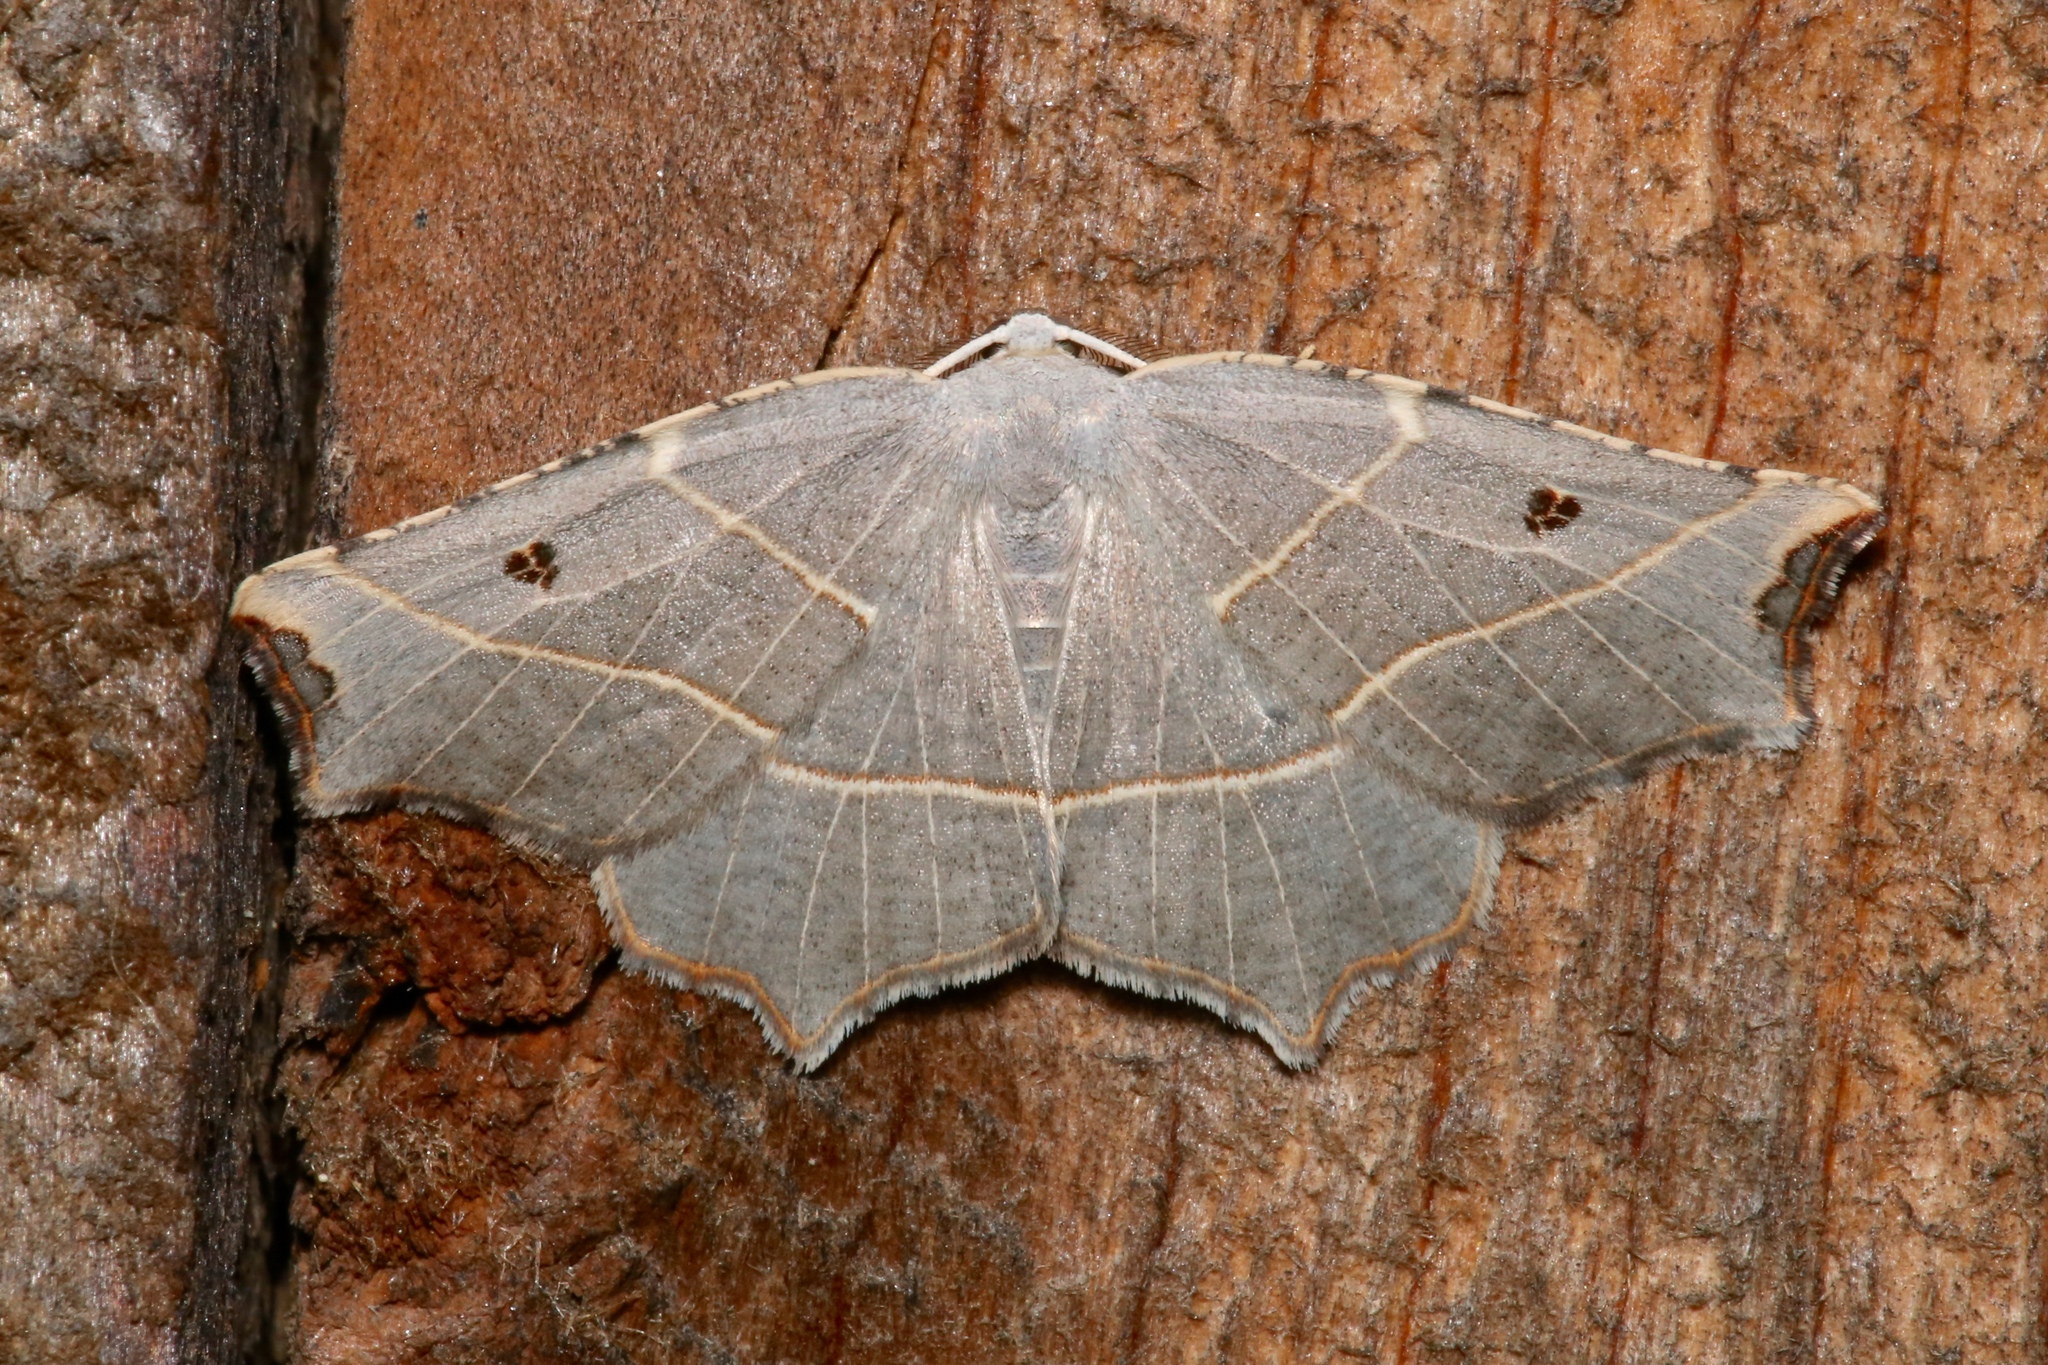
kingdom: Animalia
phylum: Arthropoda
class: Insecta
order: Lepidoptera
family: Geometridae
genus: Metanema
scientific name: Metanema inatomaria
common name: Pale metanema
